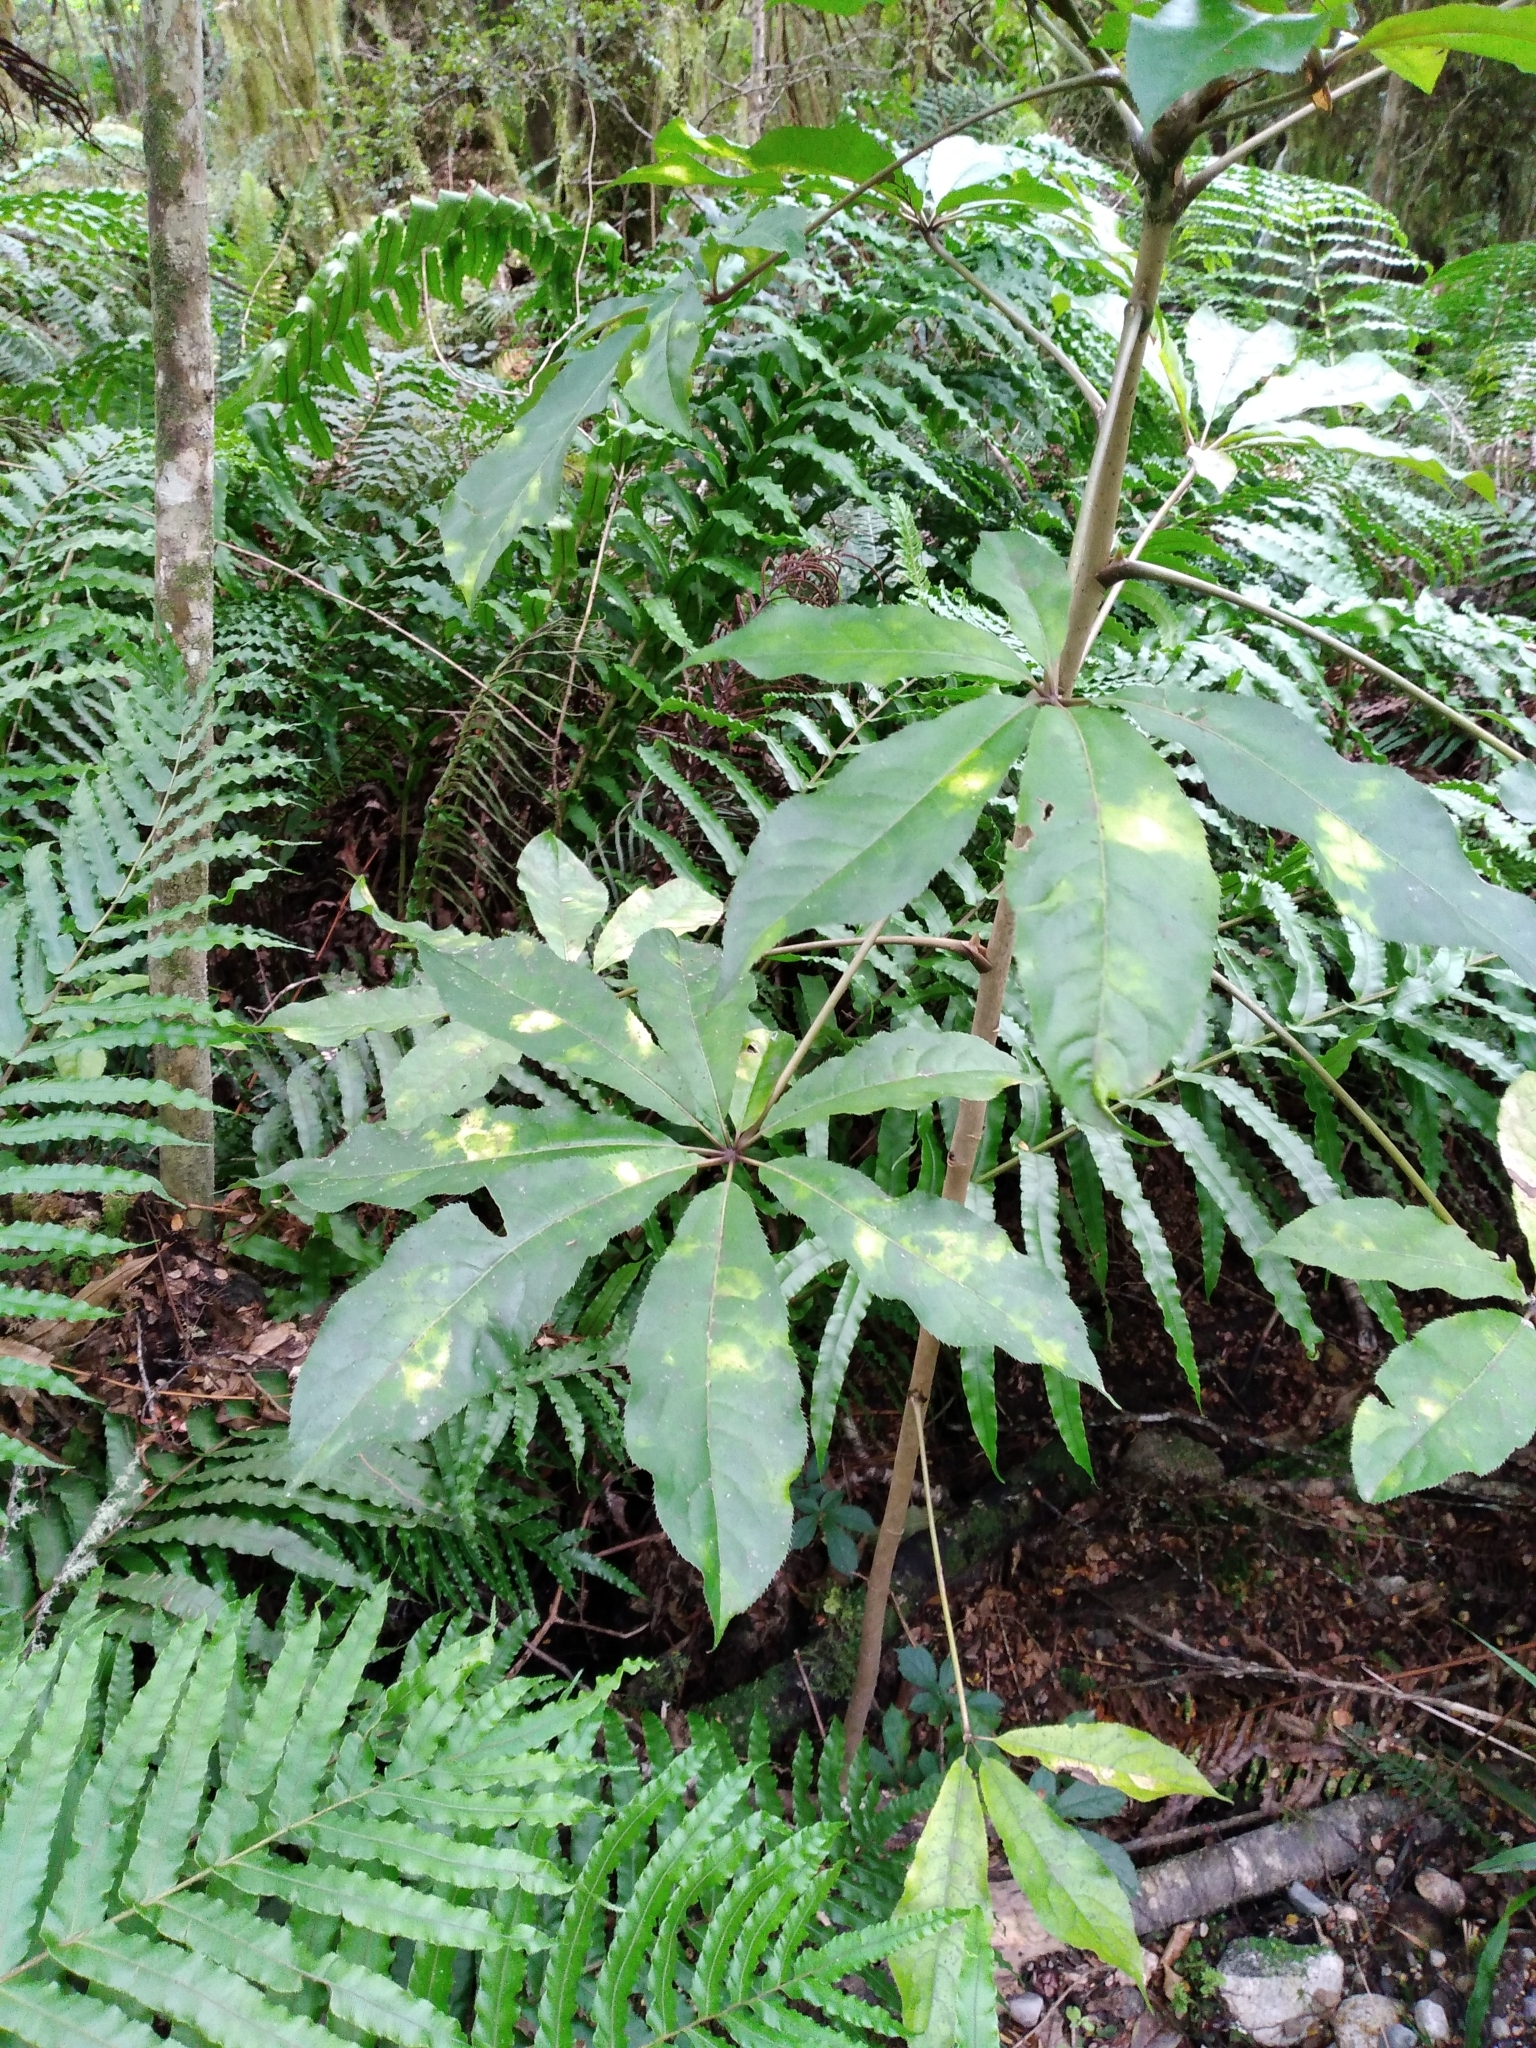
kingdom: Plantae
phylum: Tracheophyta
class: Magnoliopsida
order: Apiales
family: Araliaceae
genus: Schefflera
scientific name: Schefflera digitata
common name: Pate
